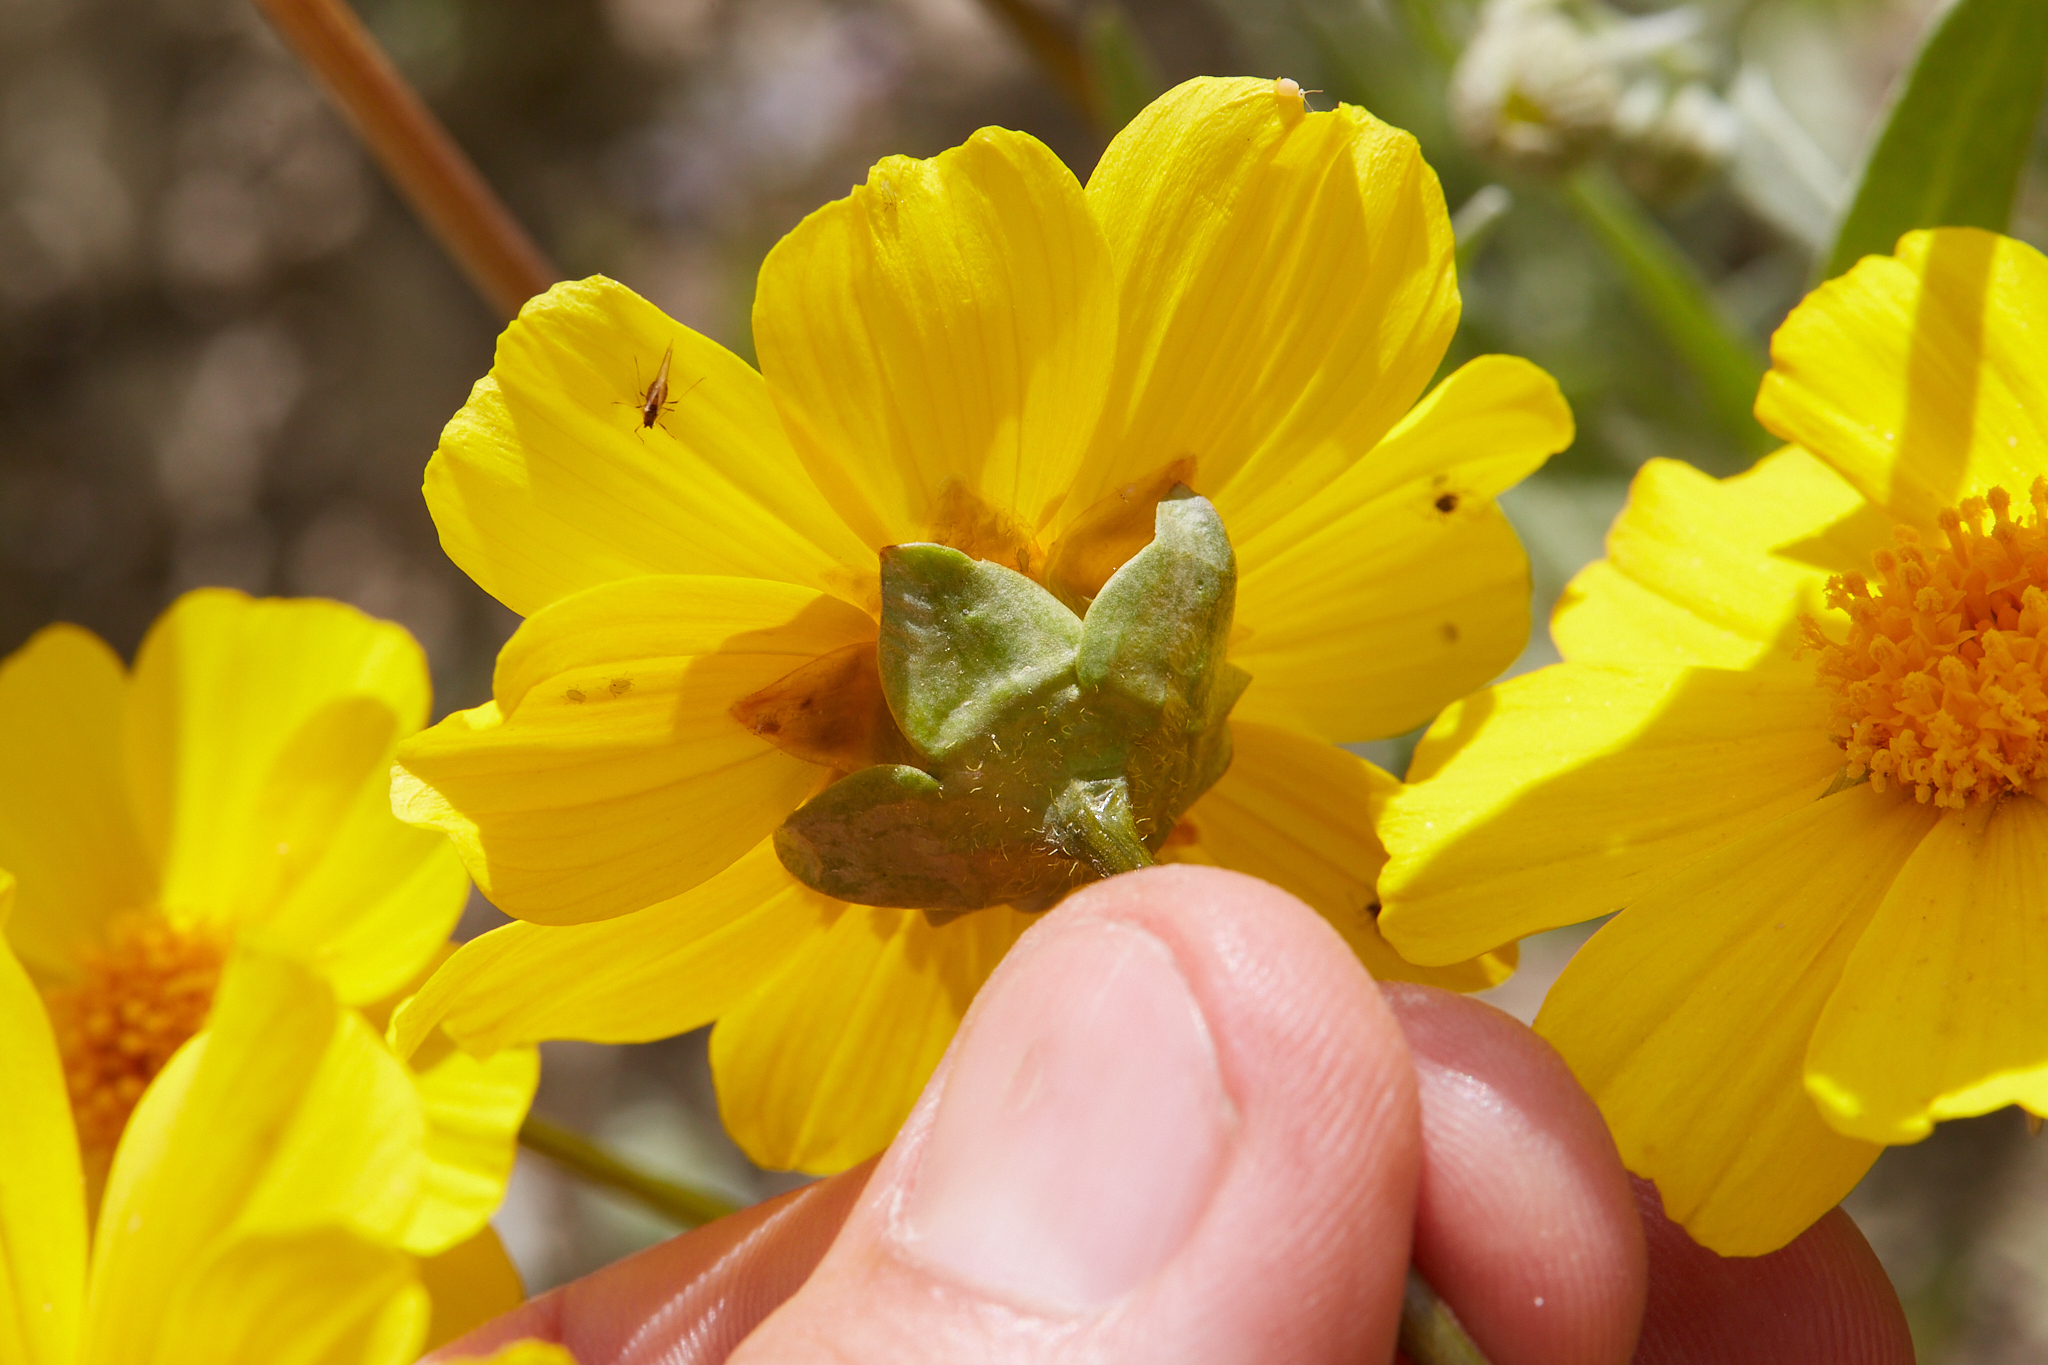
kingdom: Plantae
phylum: Tracheophyta
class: Magnoliopsida
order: Asterales
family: Asteraceae
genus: Coreopsis
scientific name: Coreopsis calliopsidea
